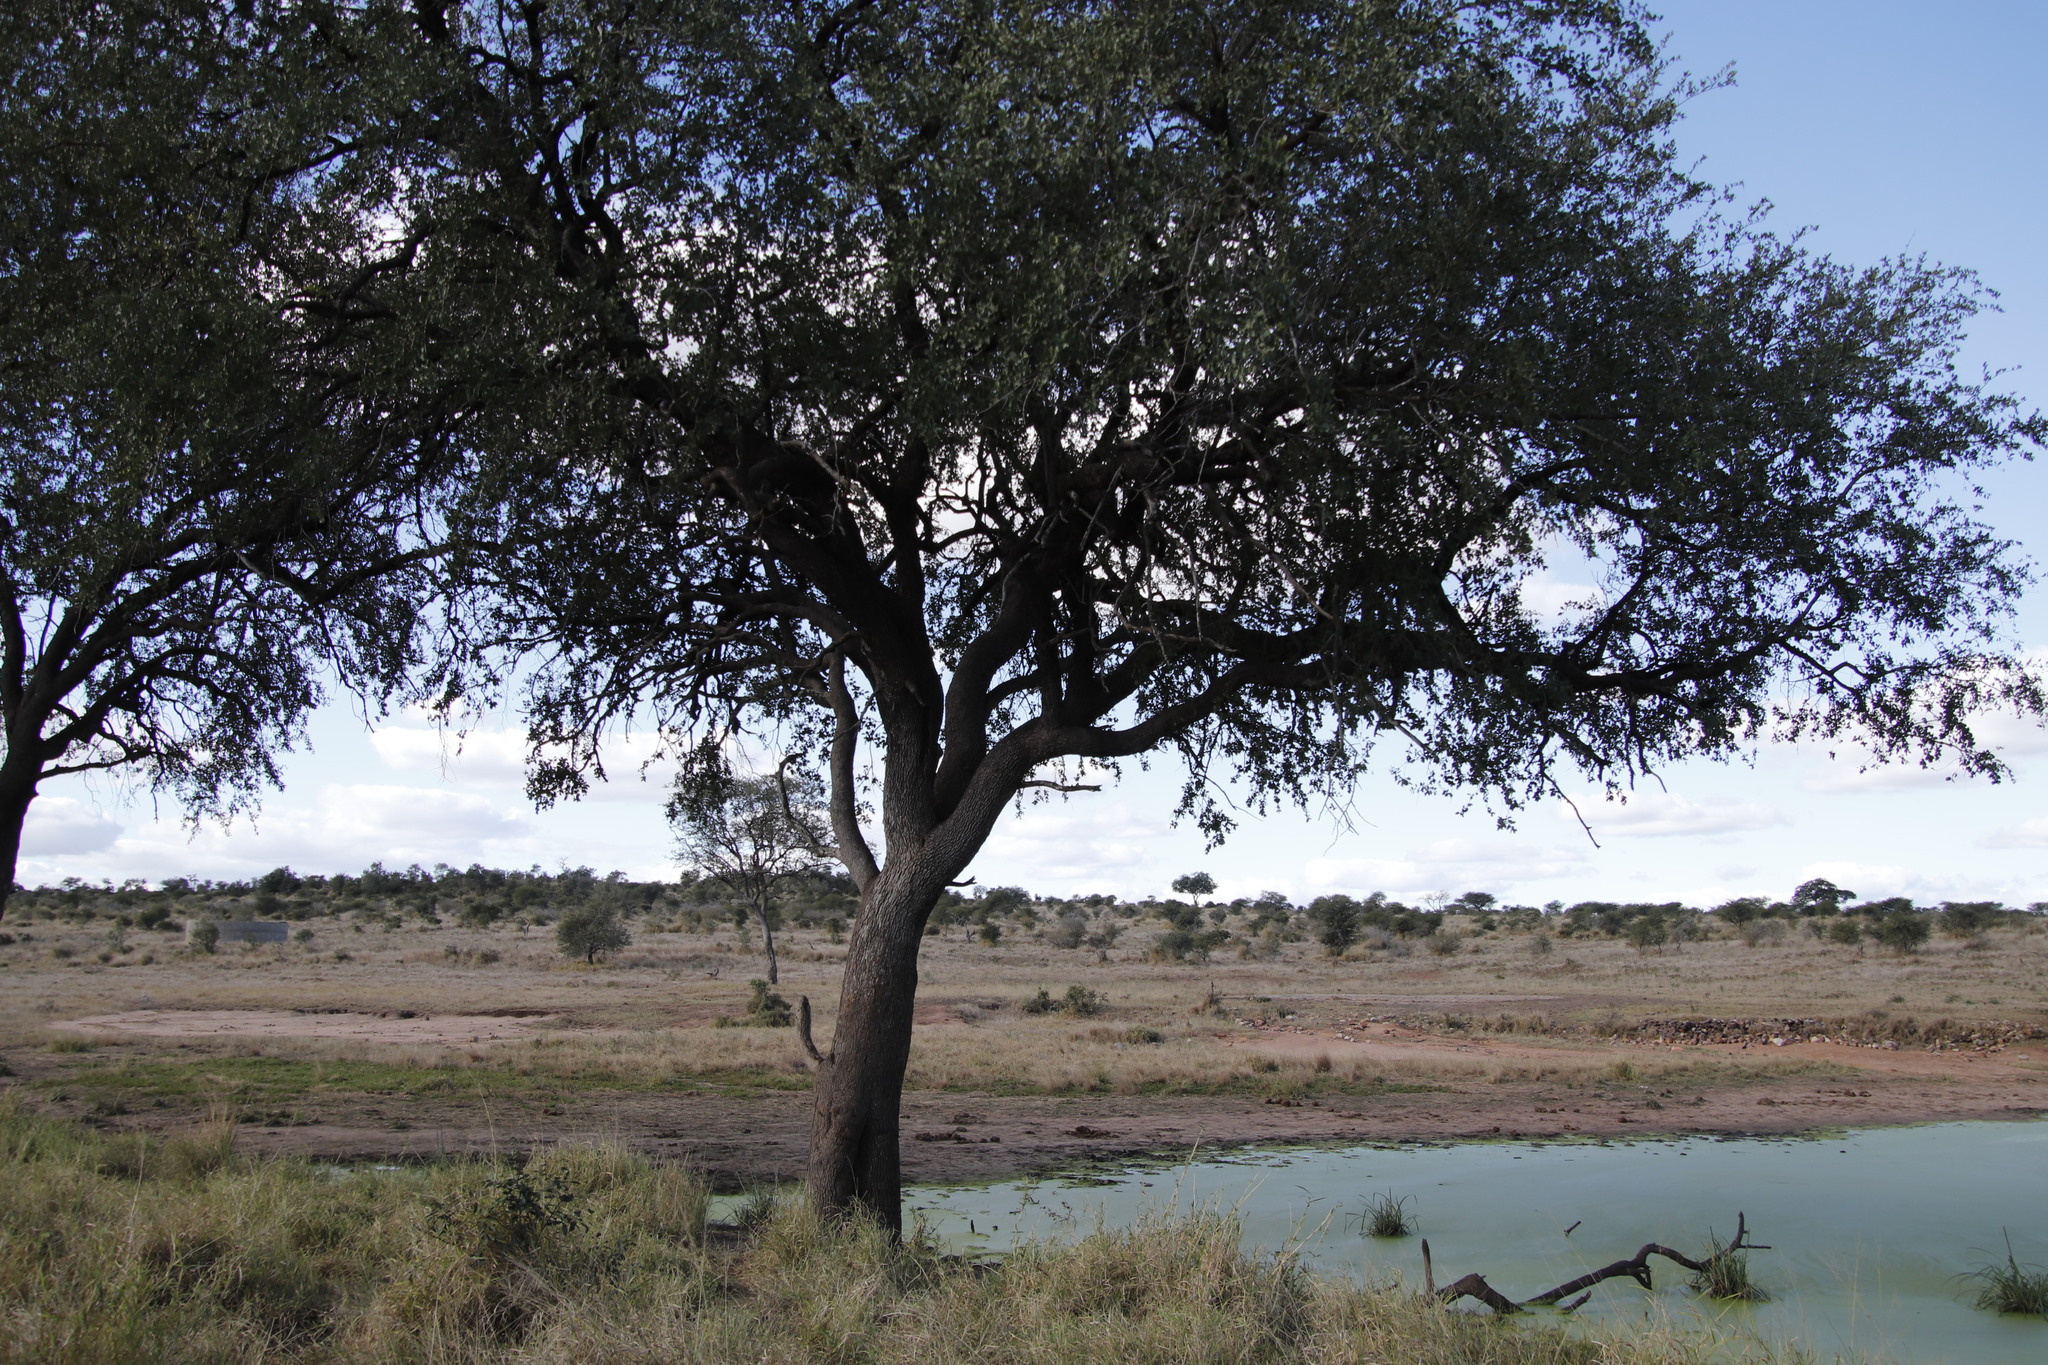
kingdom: Plantae
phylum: Tracheophyta
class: Magnoliopsida
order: Myrtales
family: Combretaceae
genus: Combretum
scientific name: Combretum imberbe
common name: Leadwood
